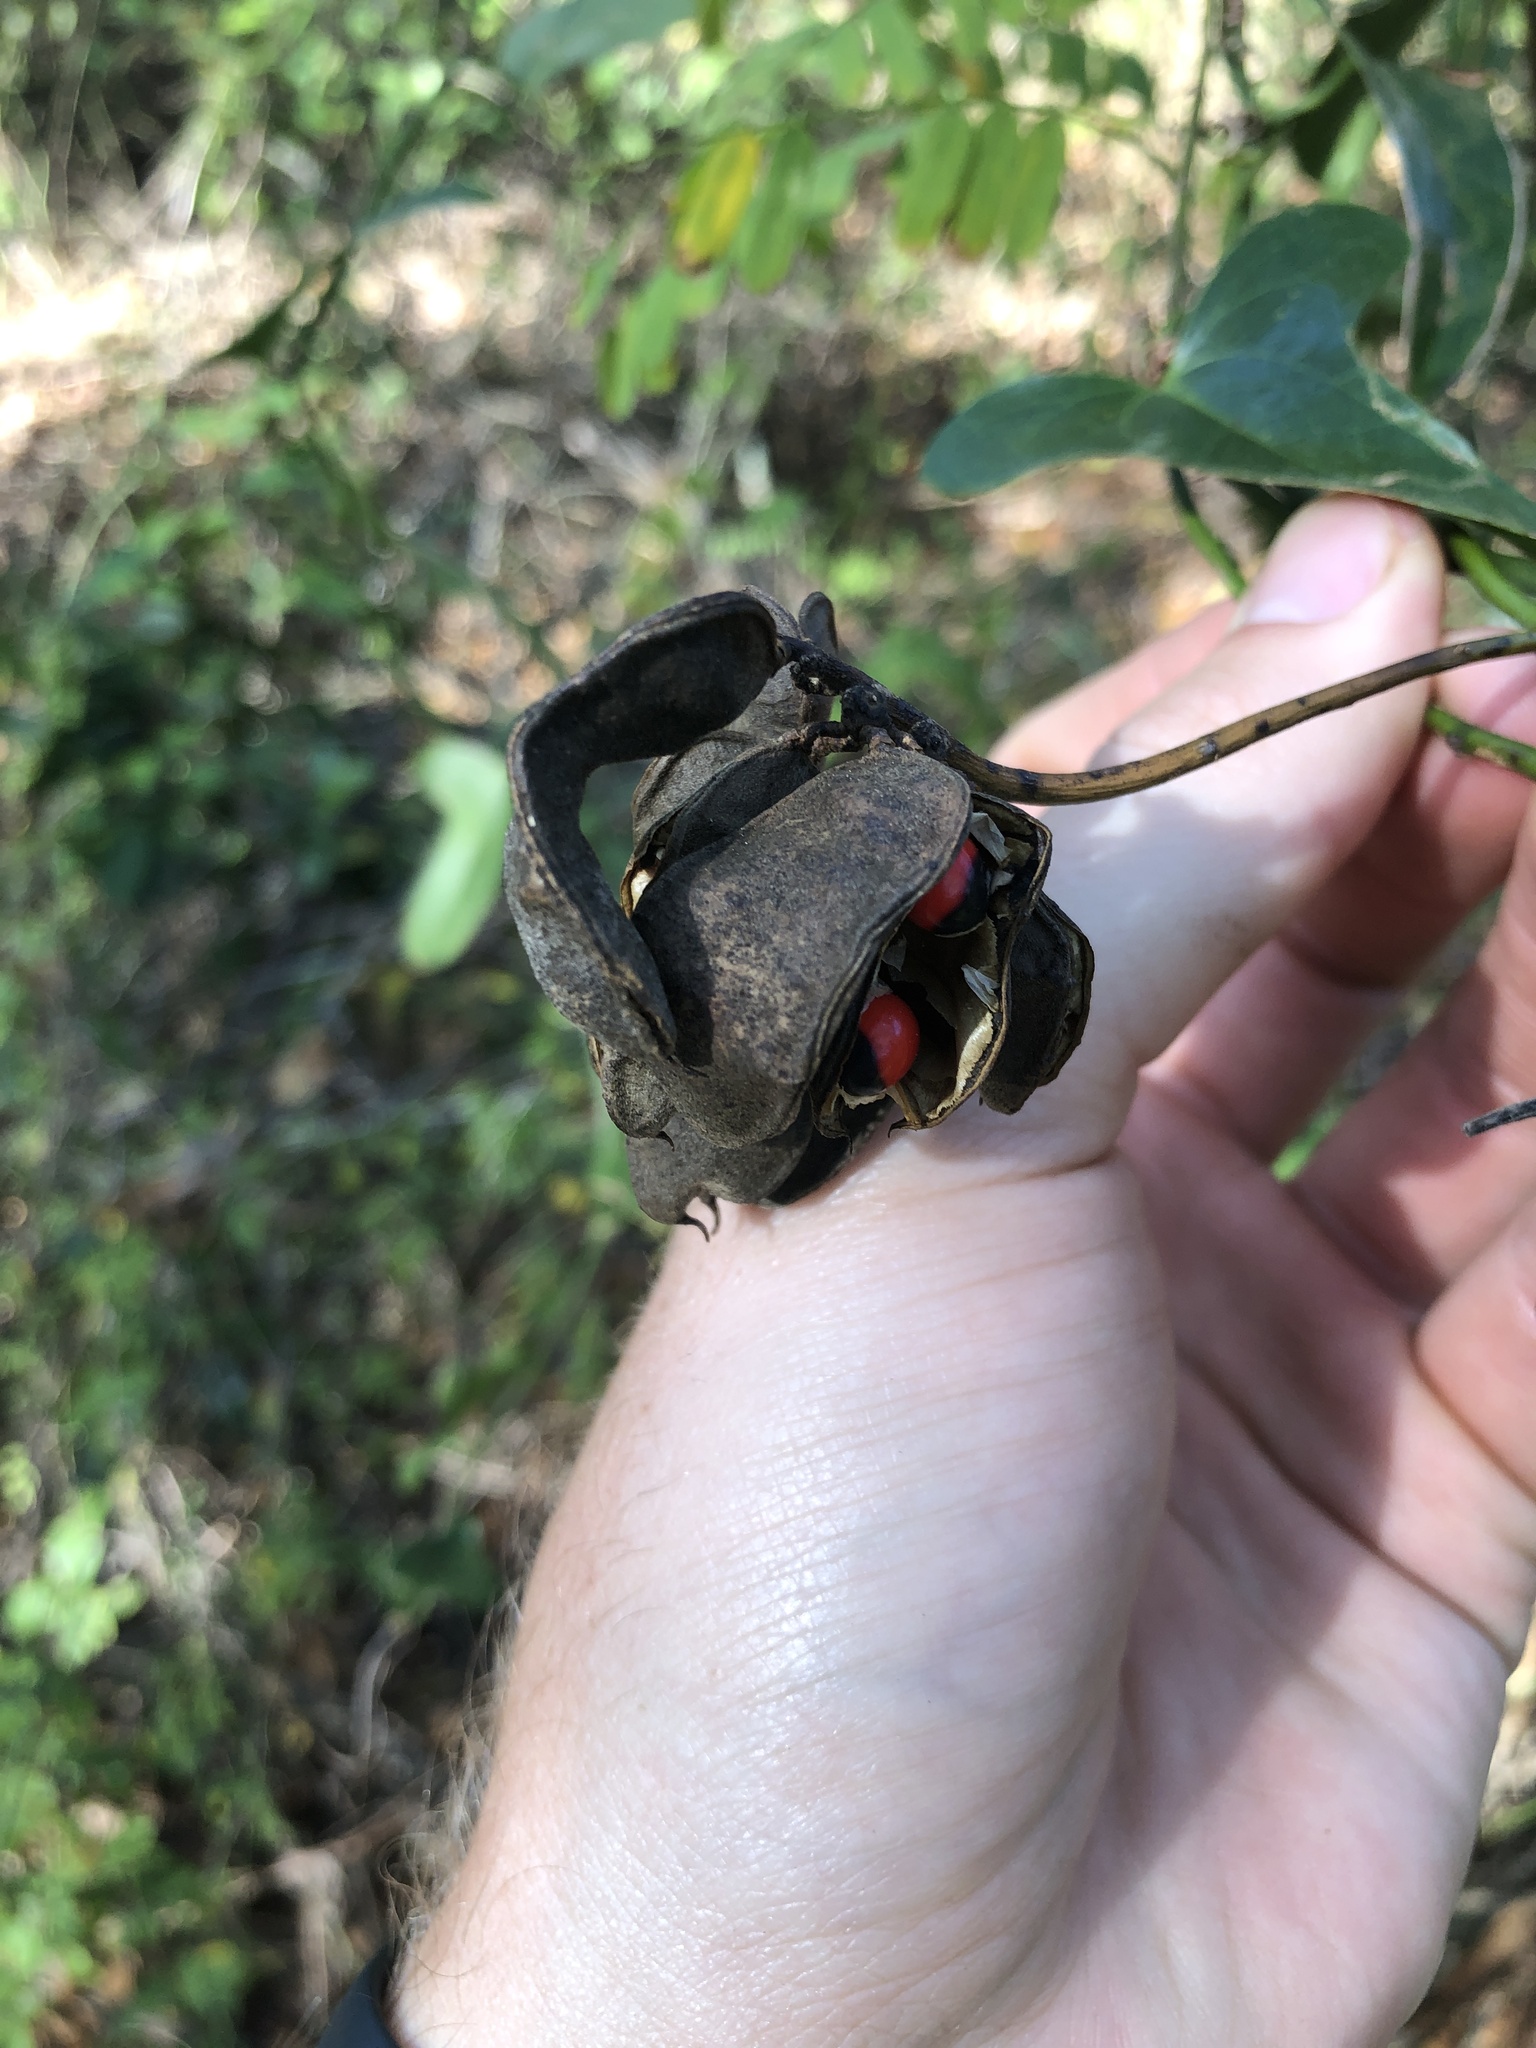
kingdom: Plantae
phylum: Tracheophyta
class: Magnoliopsida
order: Fabales
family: Fabaceae
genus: Abrus
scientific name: Abrus precatorius
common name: Rosarypea
